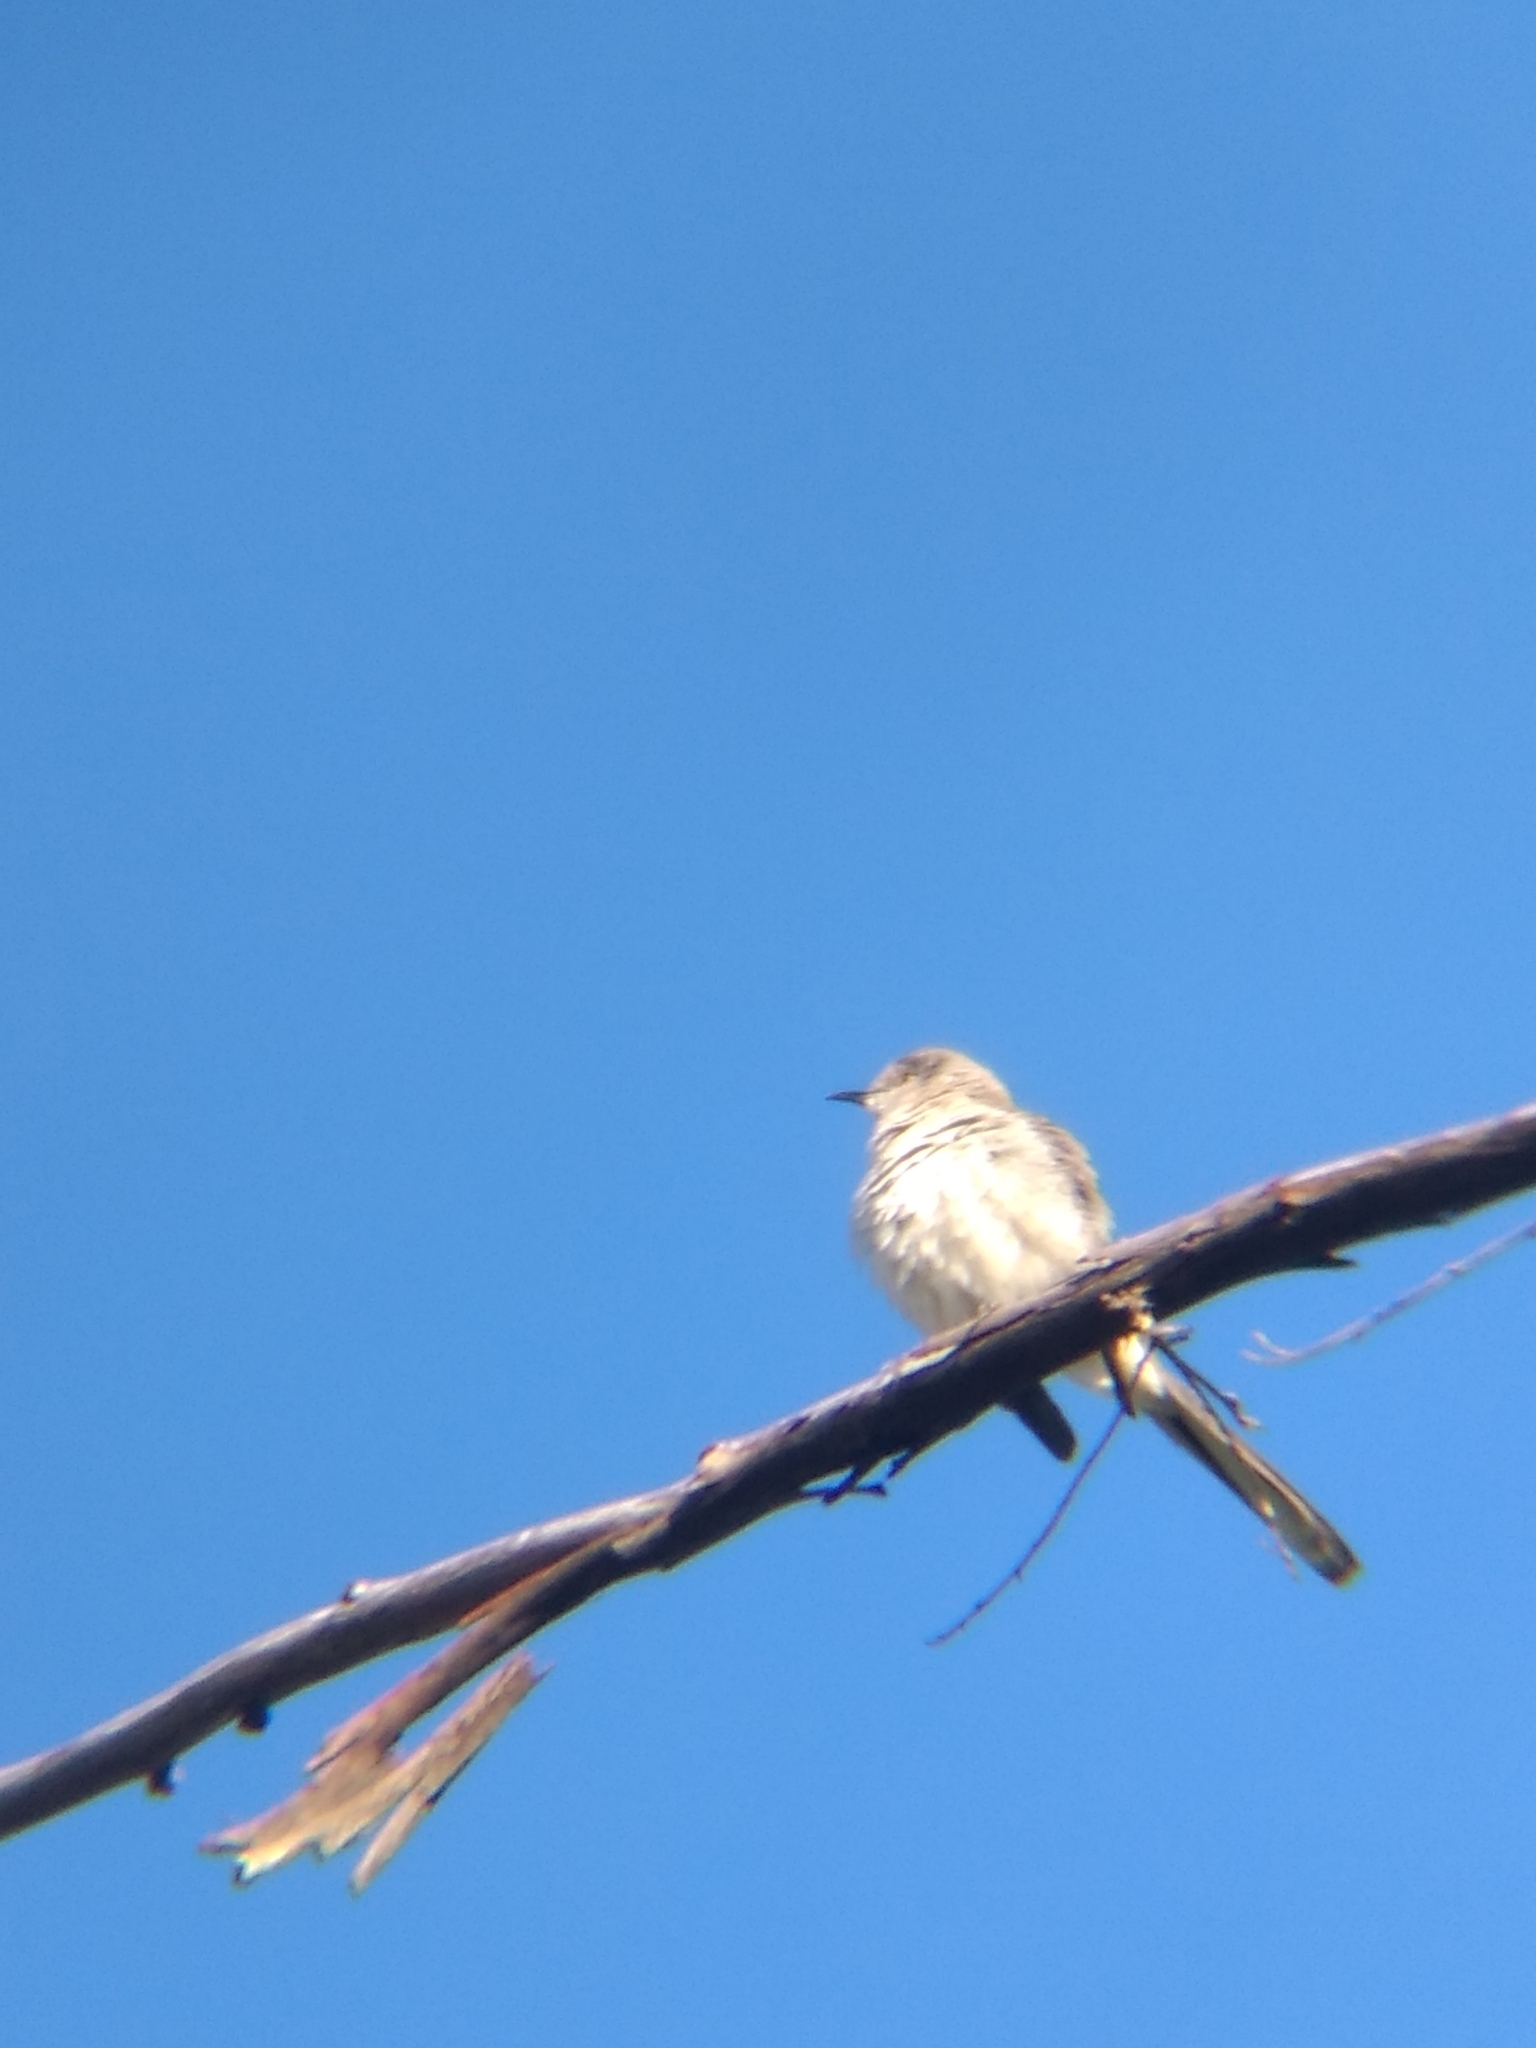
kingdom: Animalia
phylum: Chordata
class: Aves
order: Passeriformes
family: Mimidae
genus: Mimus
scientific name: Mimus polyglottos
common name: Northern mockingbird
